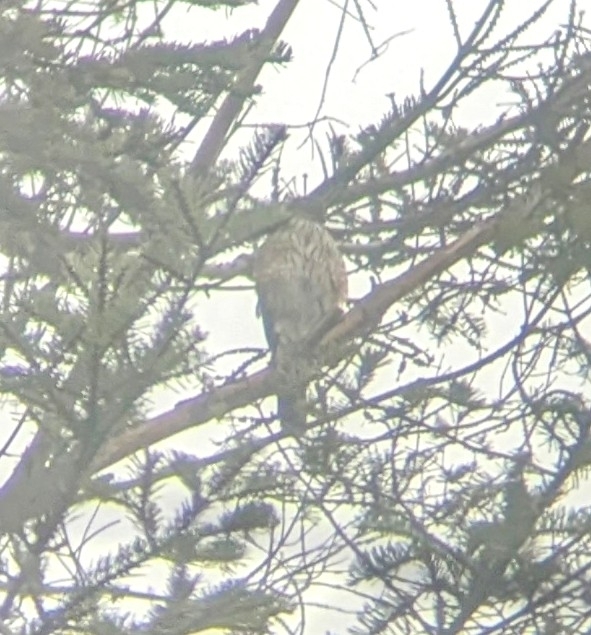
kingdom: Animalia
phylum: Chordata
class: Aves
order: Accipitriformes
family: Accipitridae
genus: Accipiter
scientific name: Accipiter striatus
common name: Sharp-shinned hawk
